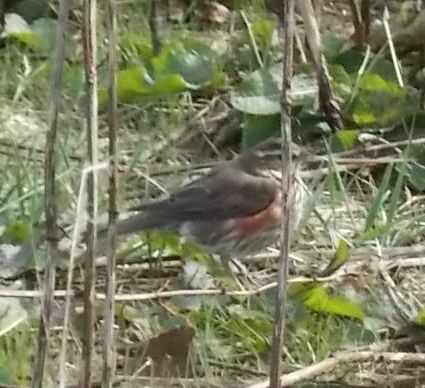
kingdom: Animalia
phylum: Chordata
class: Aves
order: Passeriformes
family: Turdidae
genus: Turdus
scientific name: Turdus iliacus
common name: Redwing
